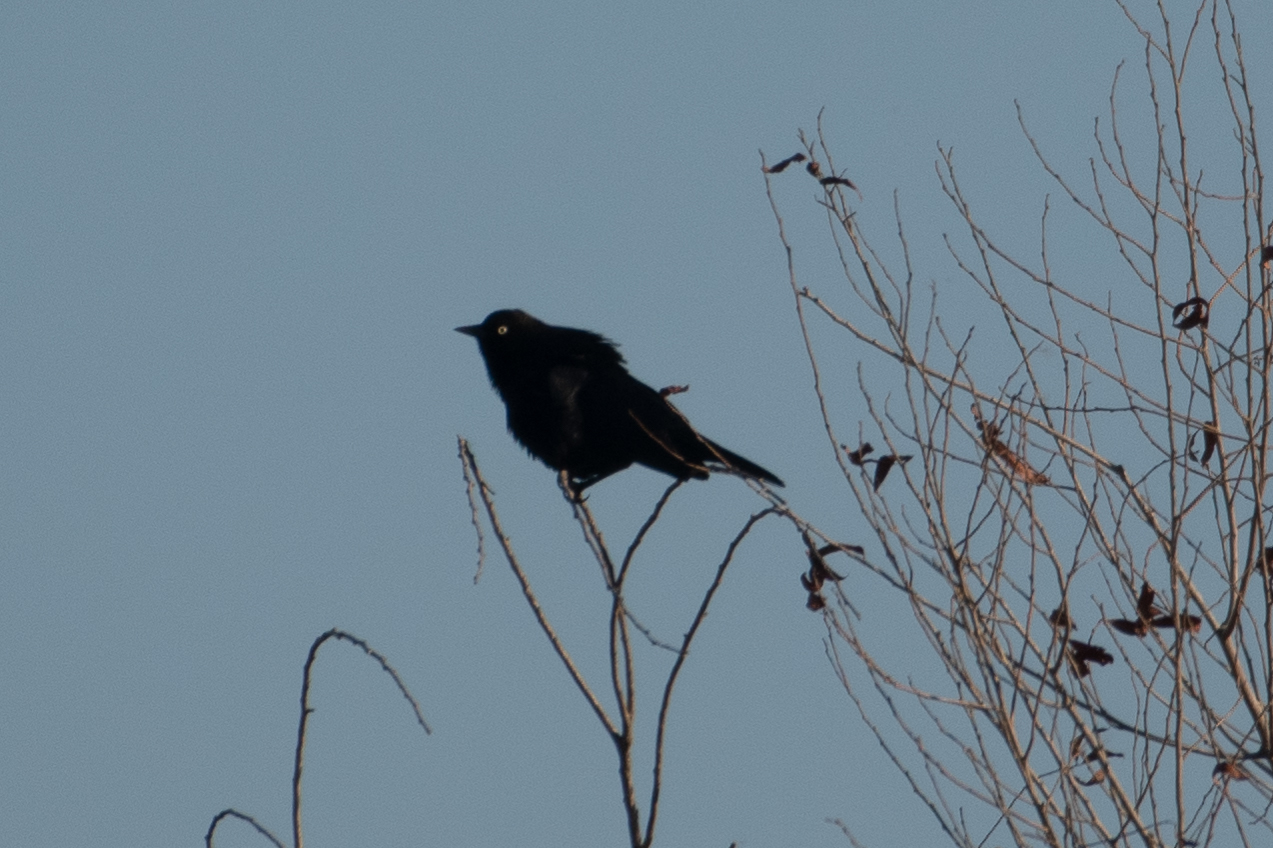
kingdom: Animalia
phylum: Chordata
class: Aves
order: Passeriformes
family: Icteridae
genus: Euphagus
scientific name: Euphagus cyanocephalus
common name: Brewer's blackbird
